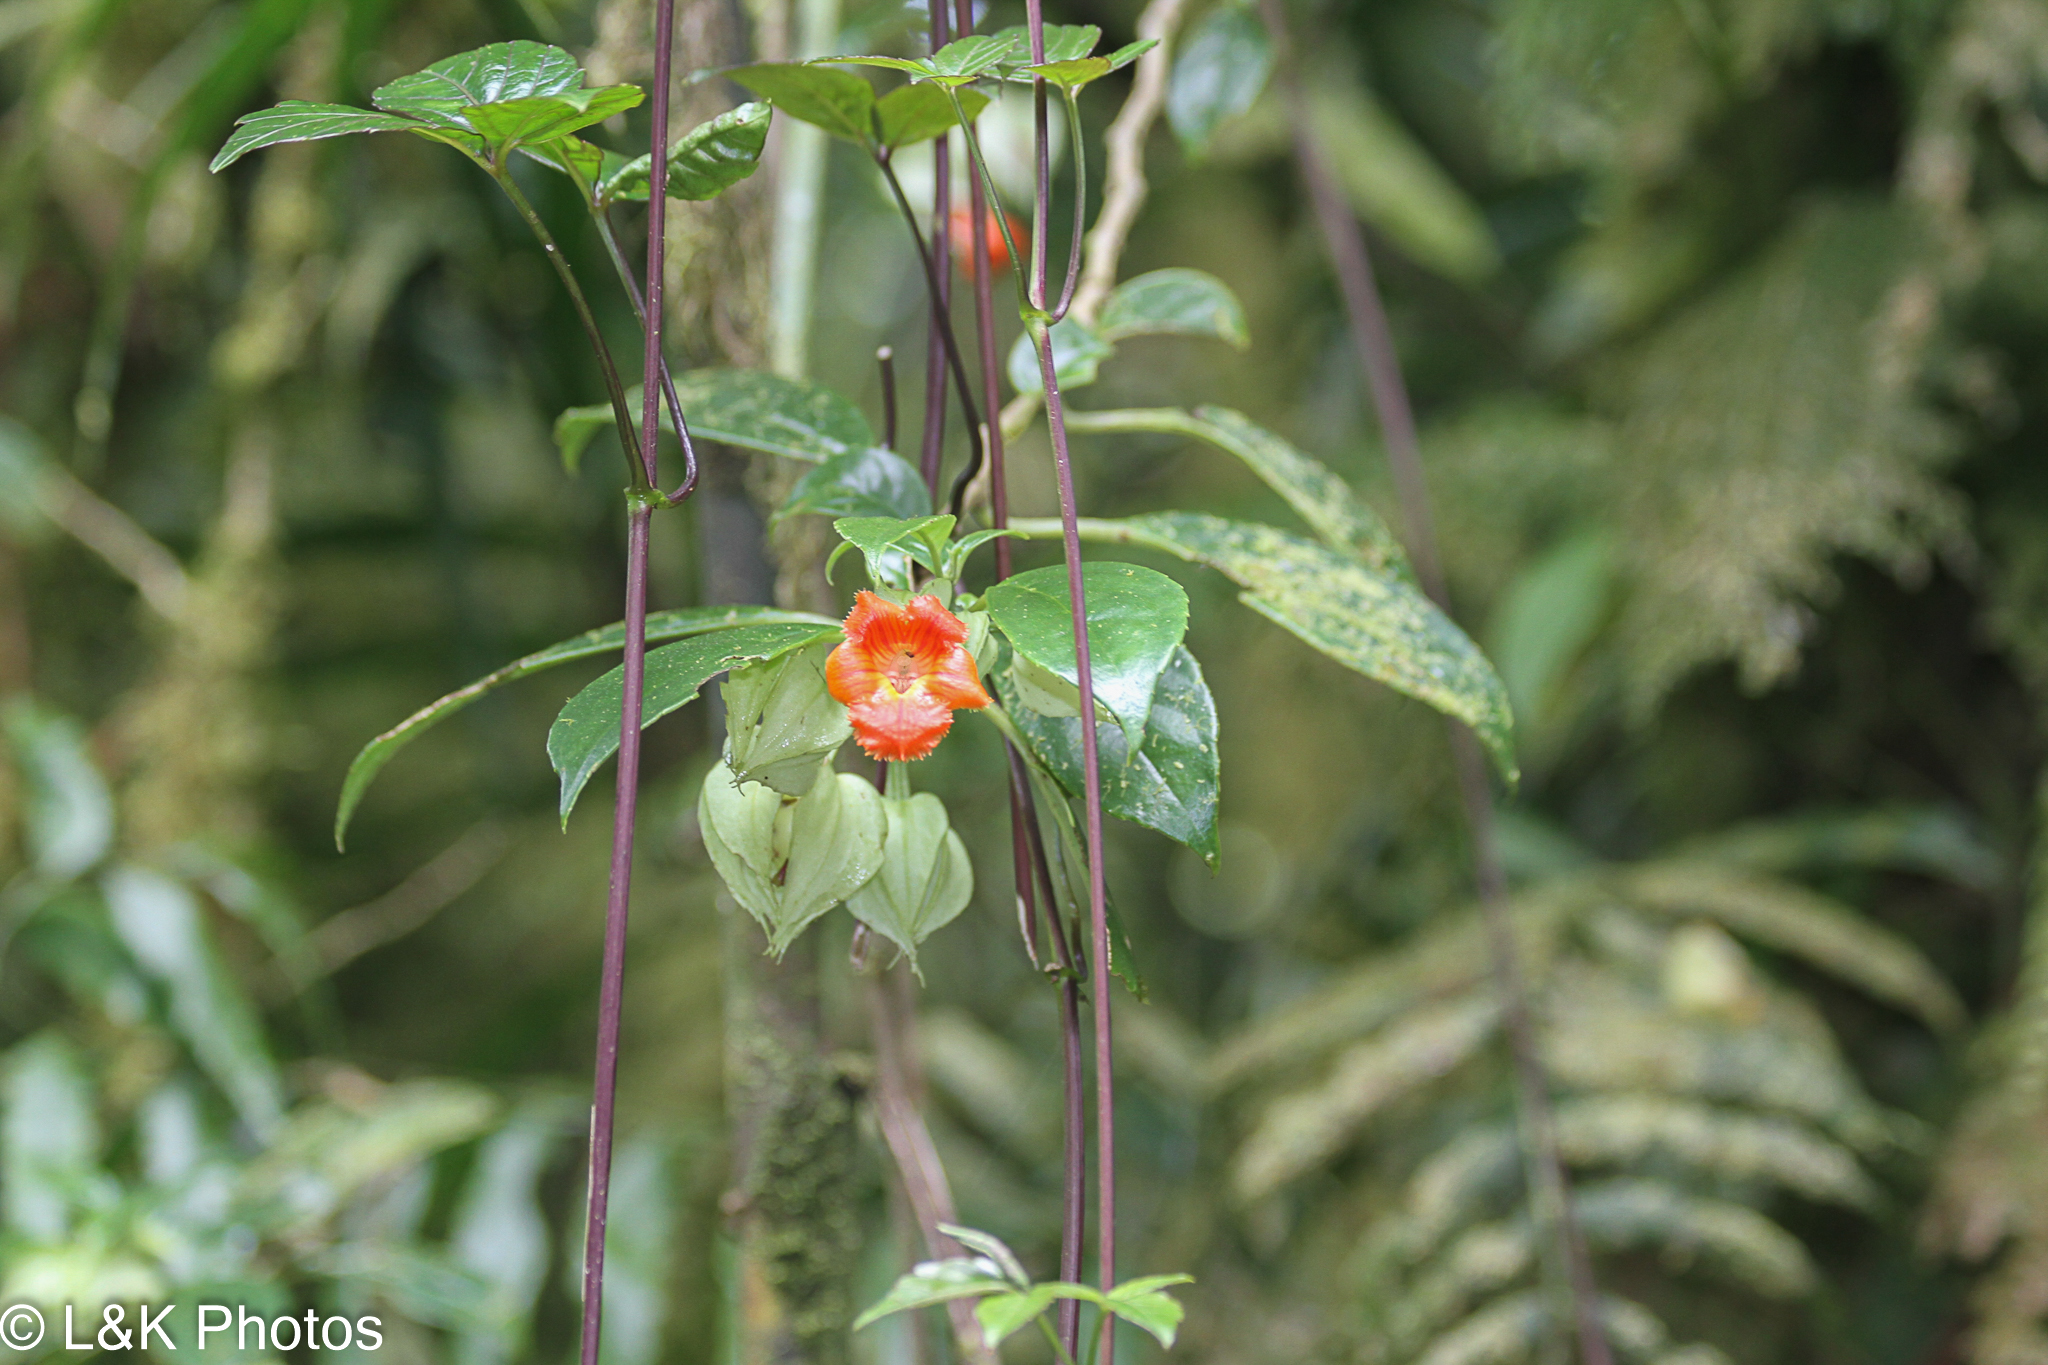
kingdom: Plantae
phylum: Tracheophyta
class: Magnoliopsida
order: Lamiales
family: Gesneriaceae
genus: Drymonia
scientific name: Drymonia rubra
